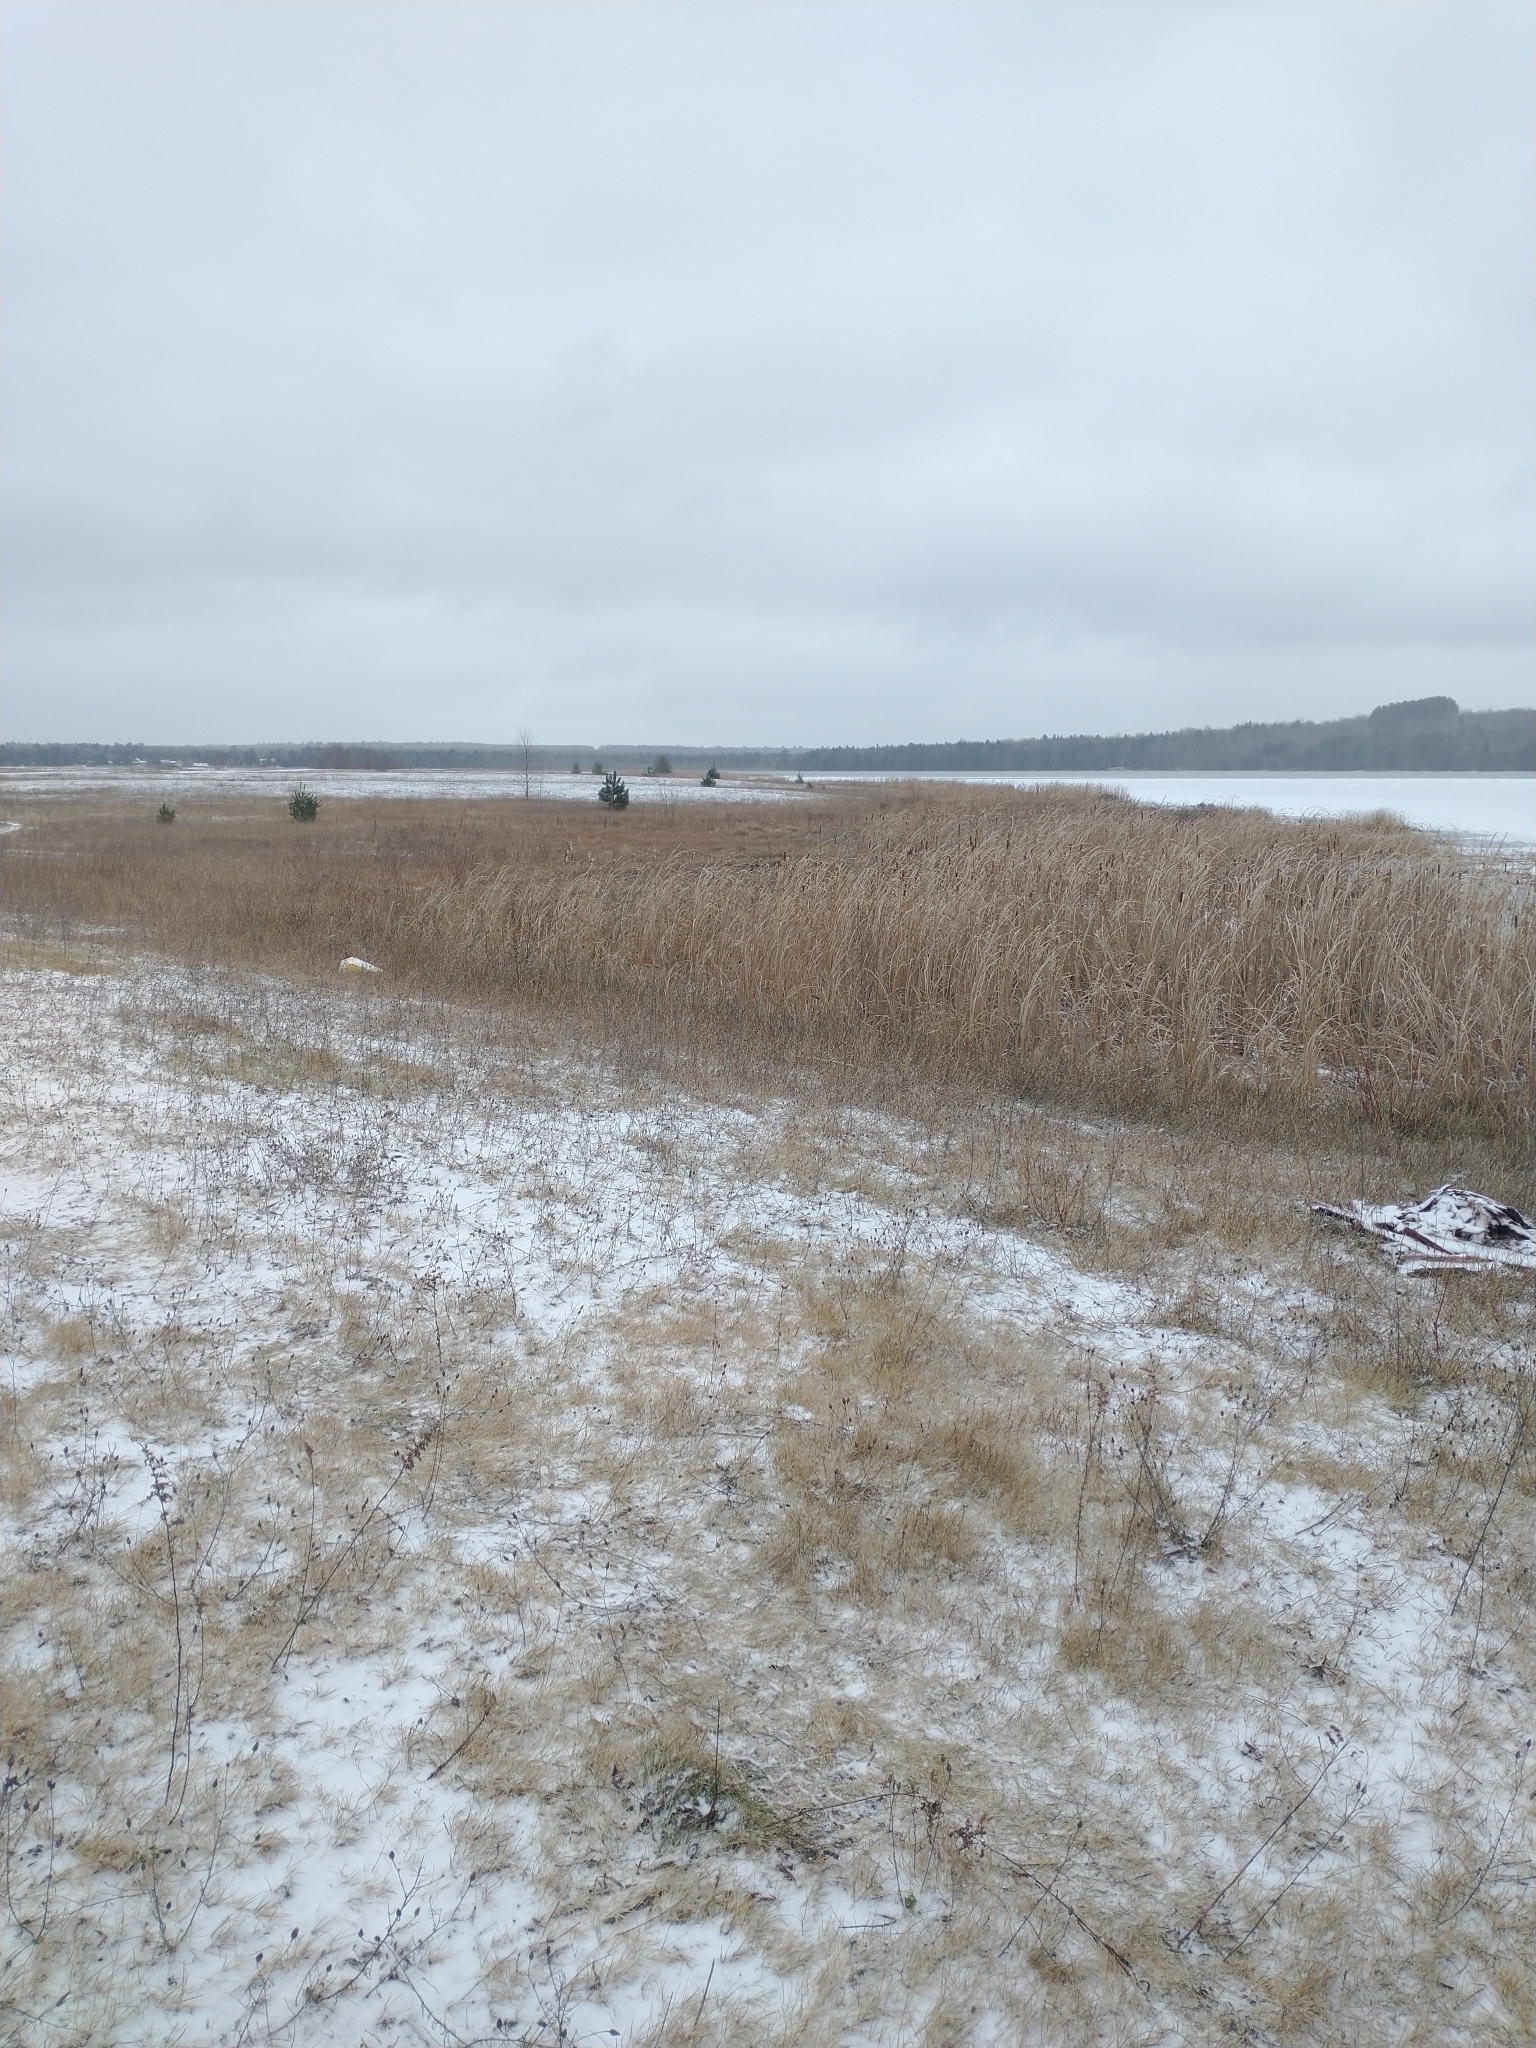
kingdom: Plantae
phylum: Tracheophyta
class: Magnoliopsida
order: Asterales
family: Asteraceae
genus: Centaurea
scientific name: Centaurea stoebe
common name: Spotted knapweed
